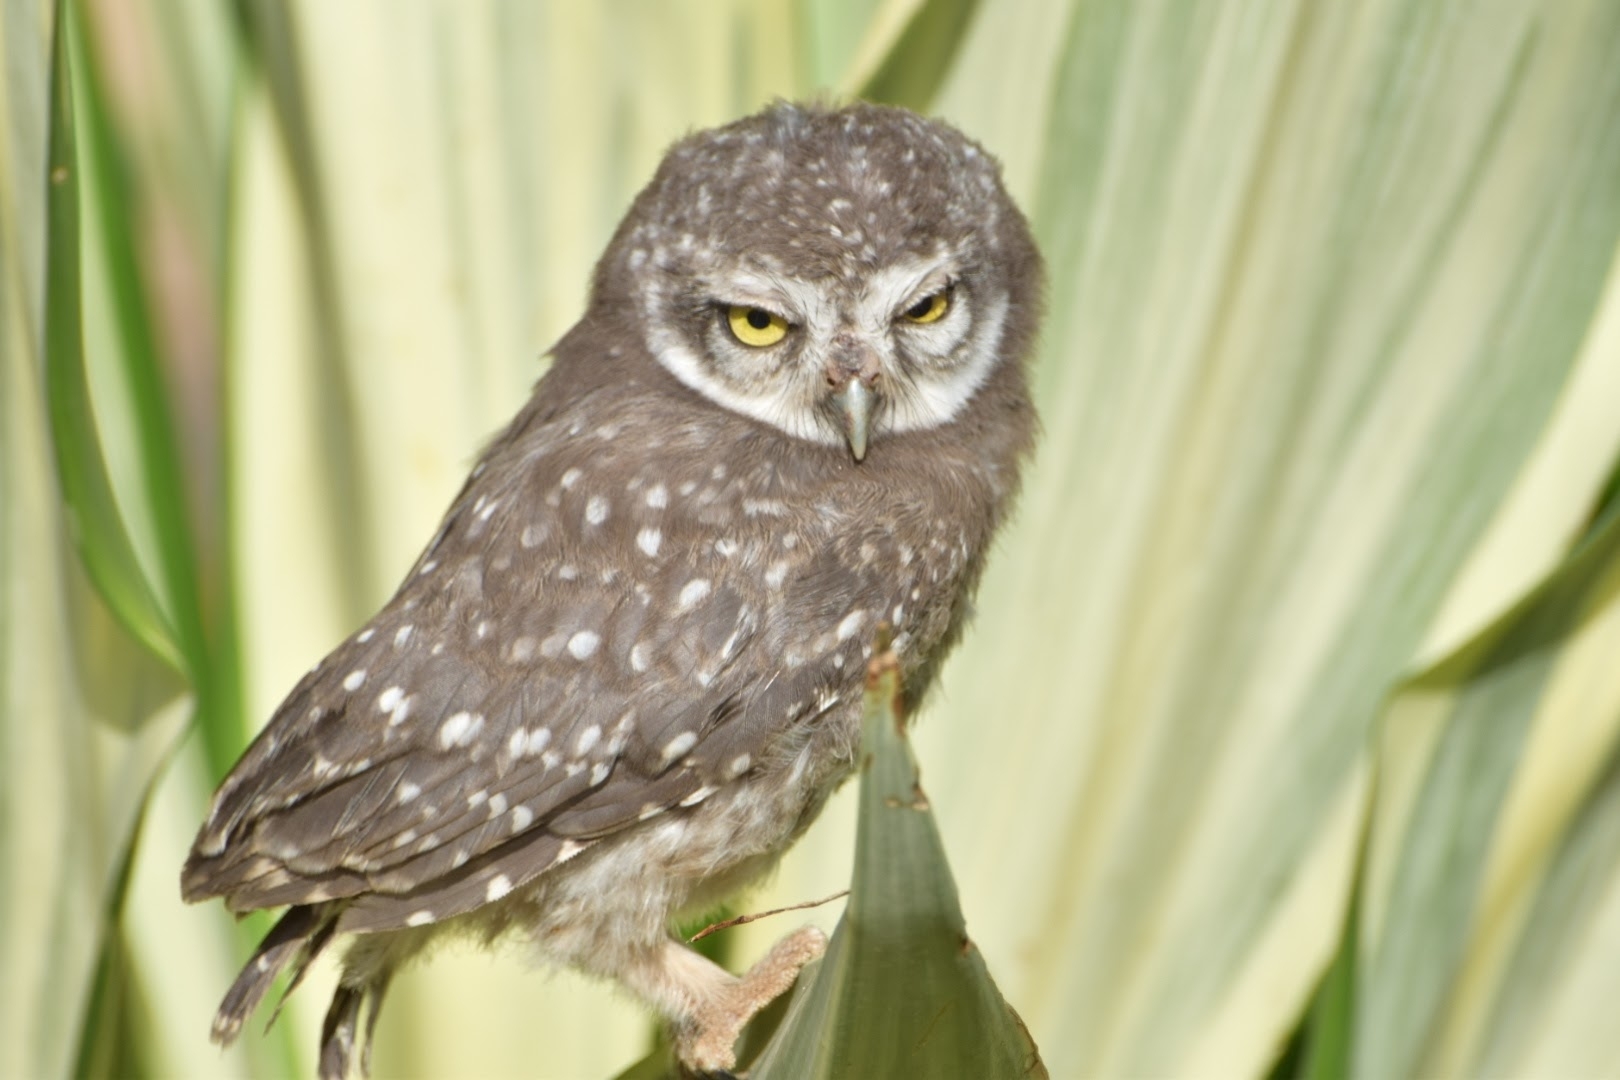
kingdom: Animalia
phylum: Chordata
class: Aves
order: Strigiformes
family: Strigidae
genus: Athene
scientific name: Athene brama
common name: Spotted owlet
